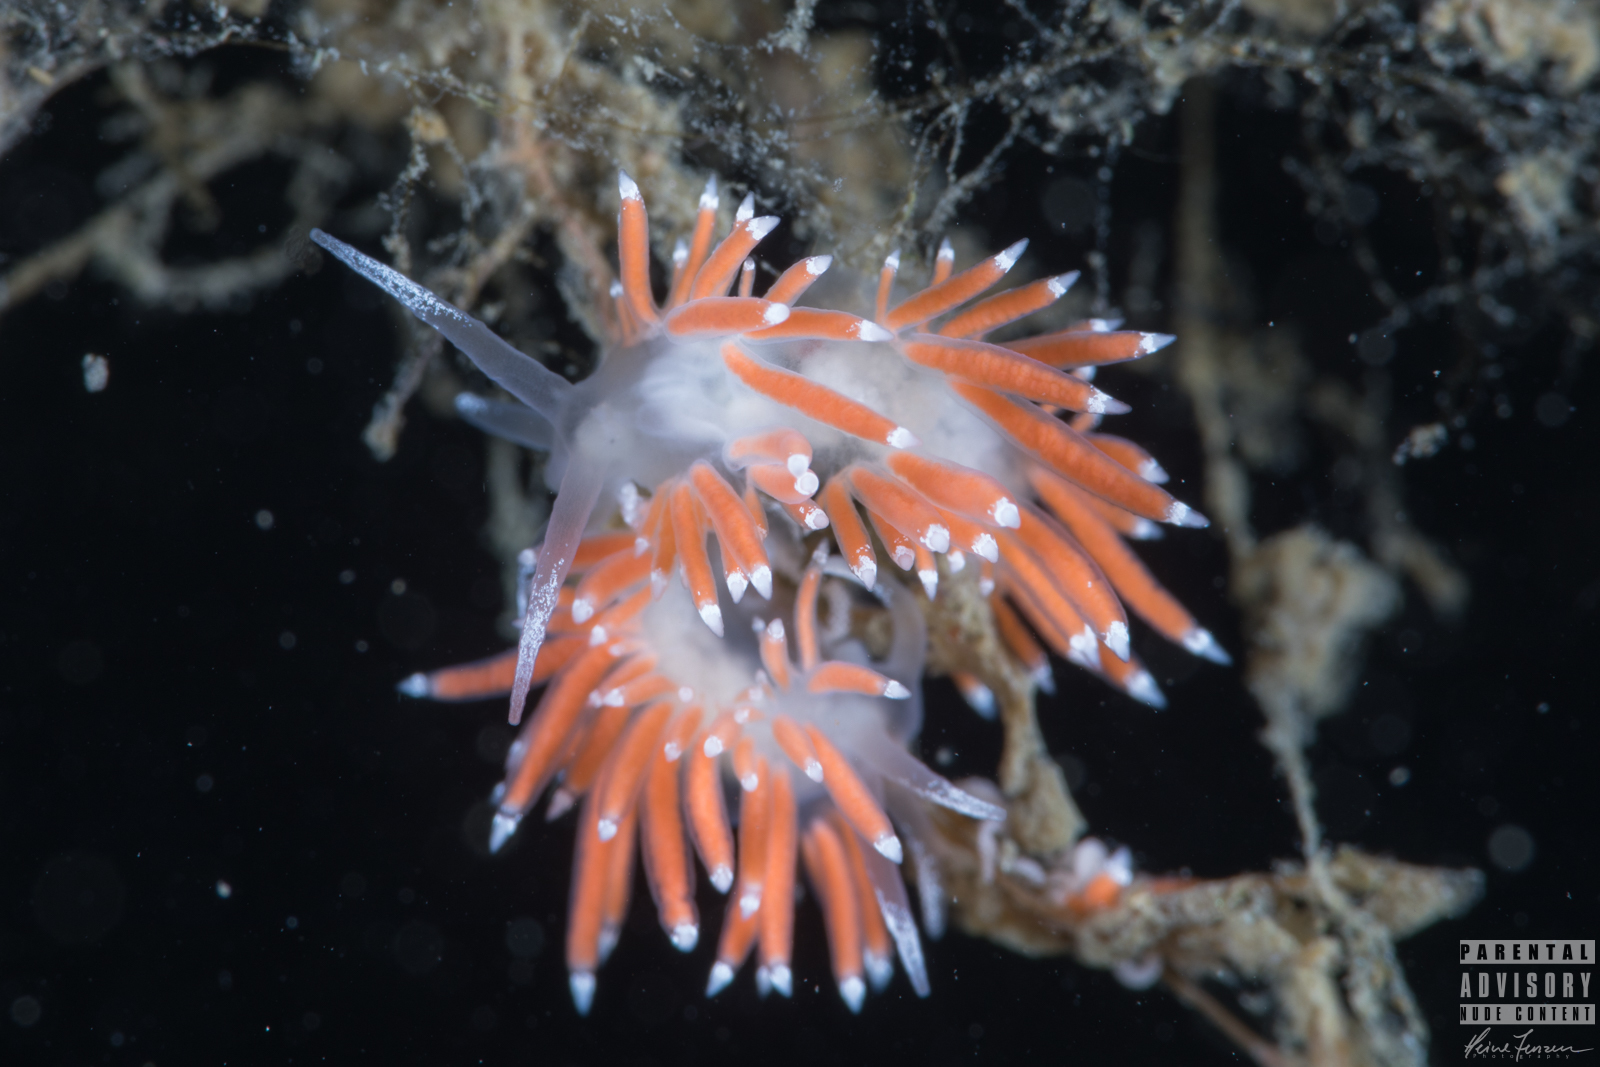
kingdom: Animalia
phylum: Mollusca
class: Gastropoda
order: Nudibranchia
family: Coryphellidae
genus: Coryphella
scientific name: Coryphella gracilis
